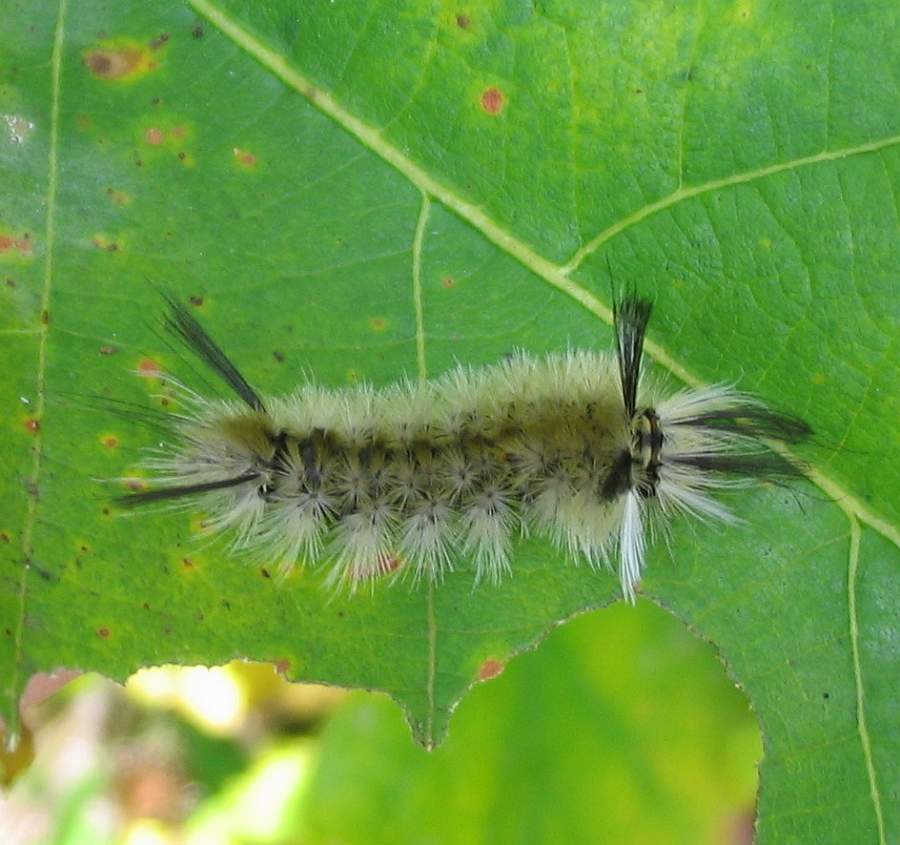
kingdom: Animalia
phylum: Arthropoda
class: Insecta
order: Lepidoptera
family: Erebidae
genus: Halysidota
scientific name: Halysidota tessellaris
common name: Banded tussock moth
